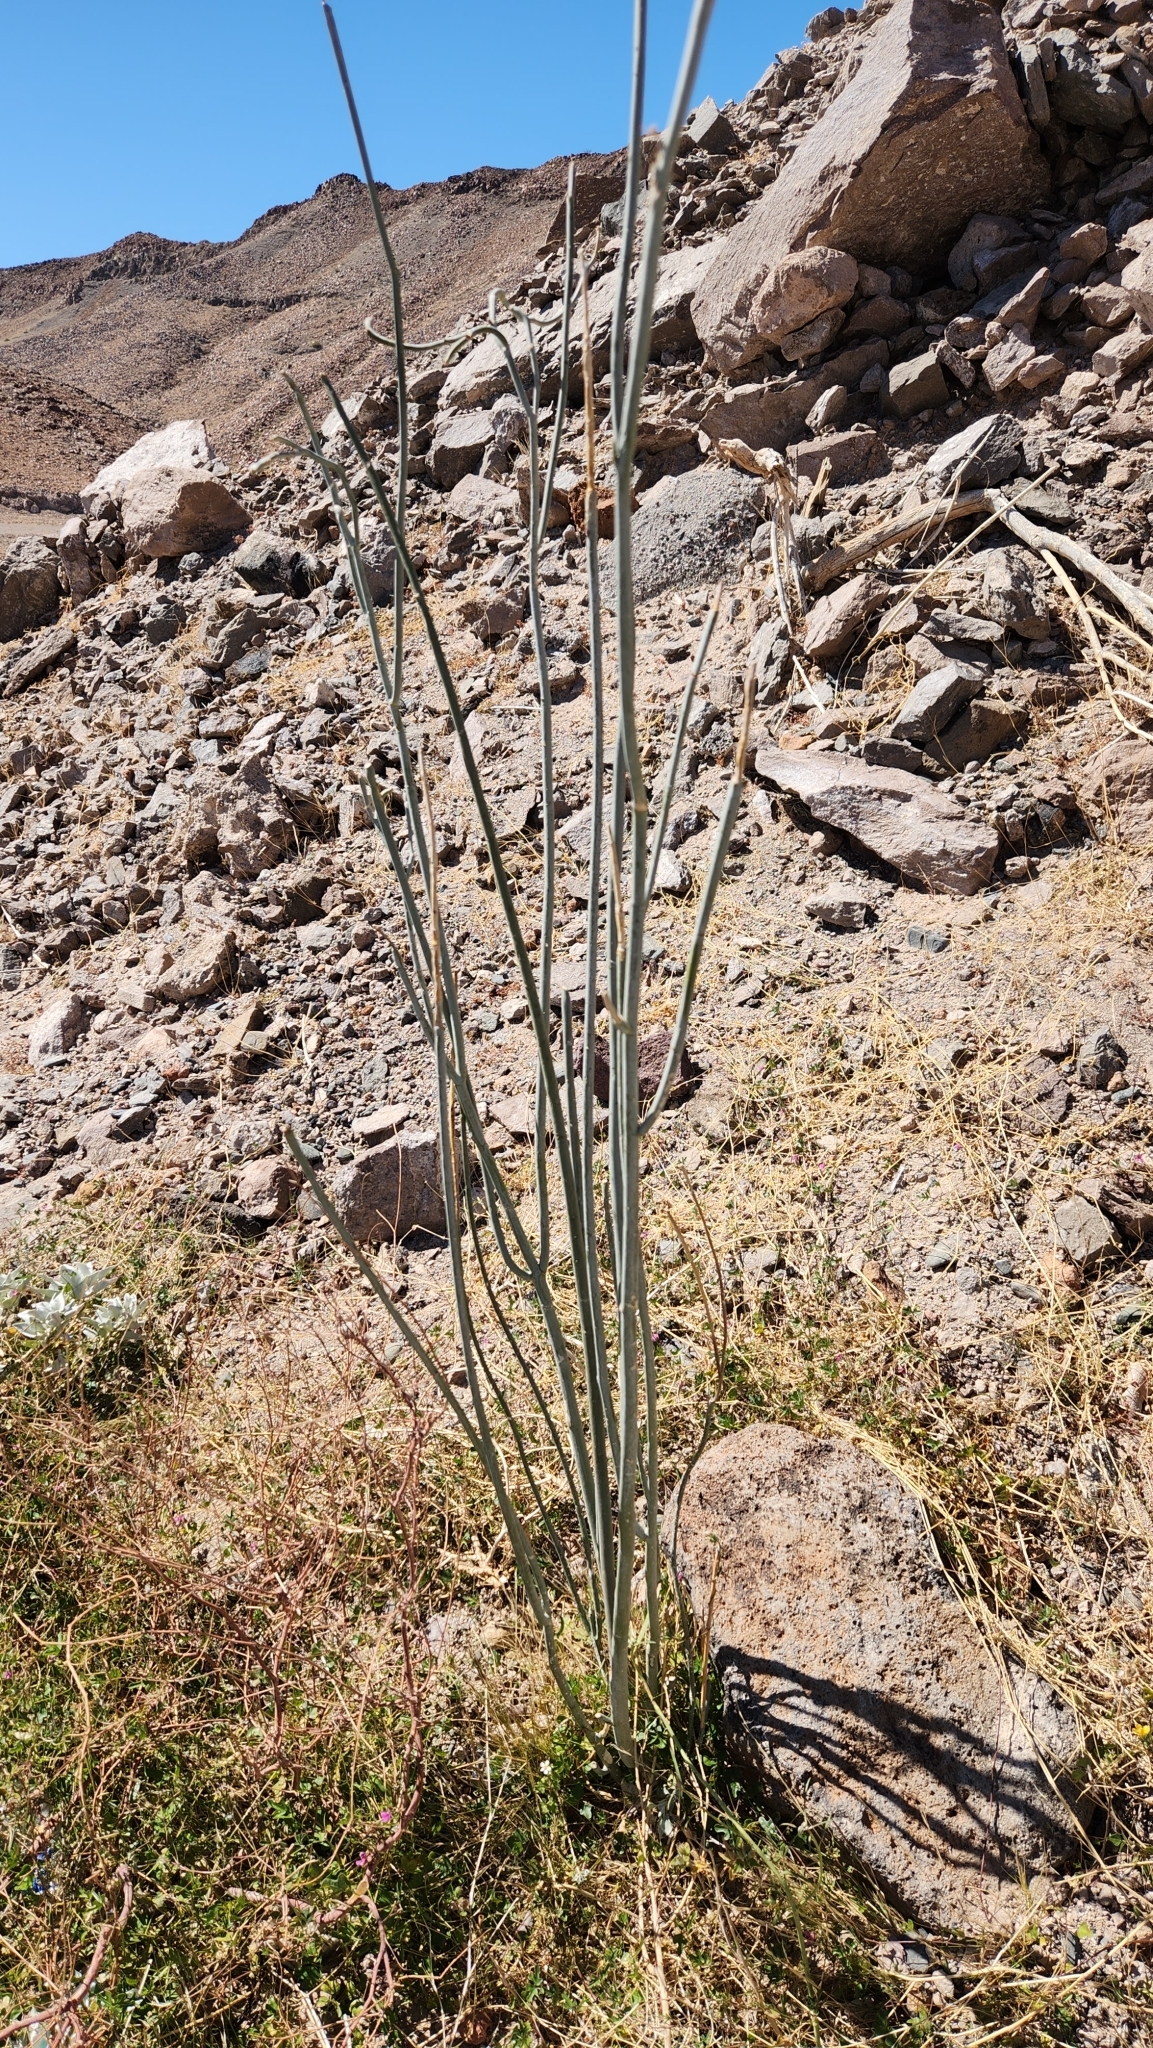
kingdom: Plantae
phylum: Tracheophyta
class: Magnoliopsida
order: Gentianales
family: Apocynaceae
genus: Asclepias
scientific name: Asclepias albicans
